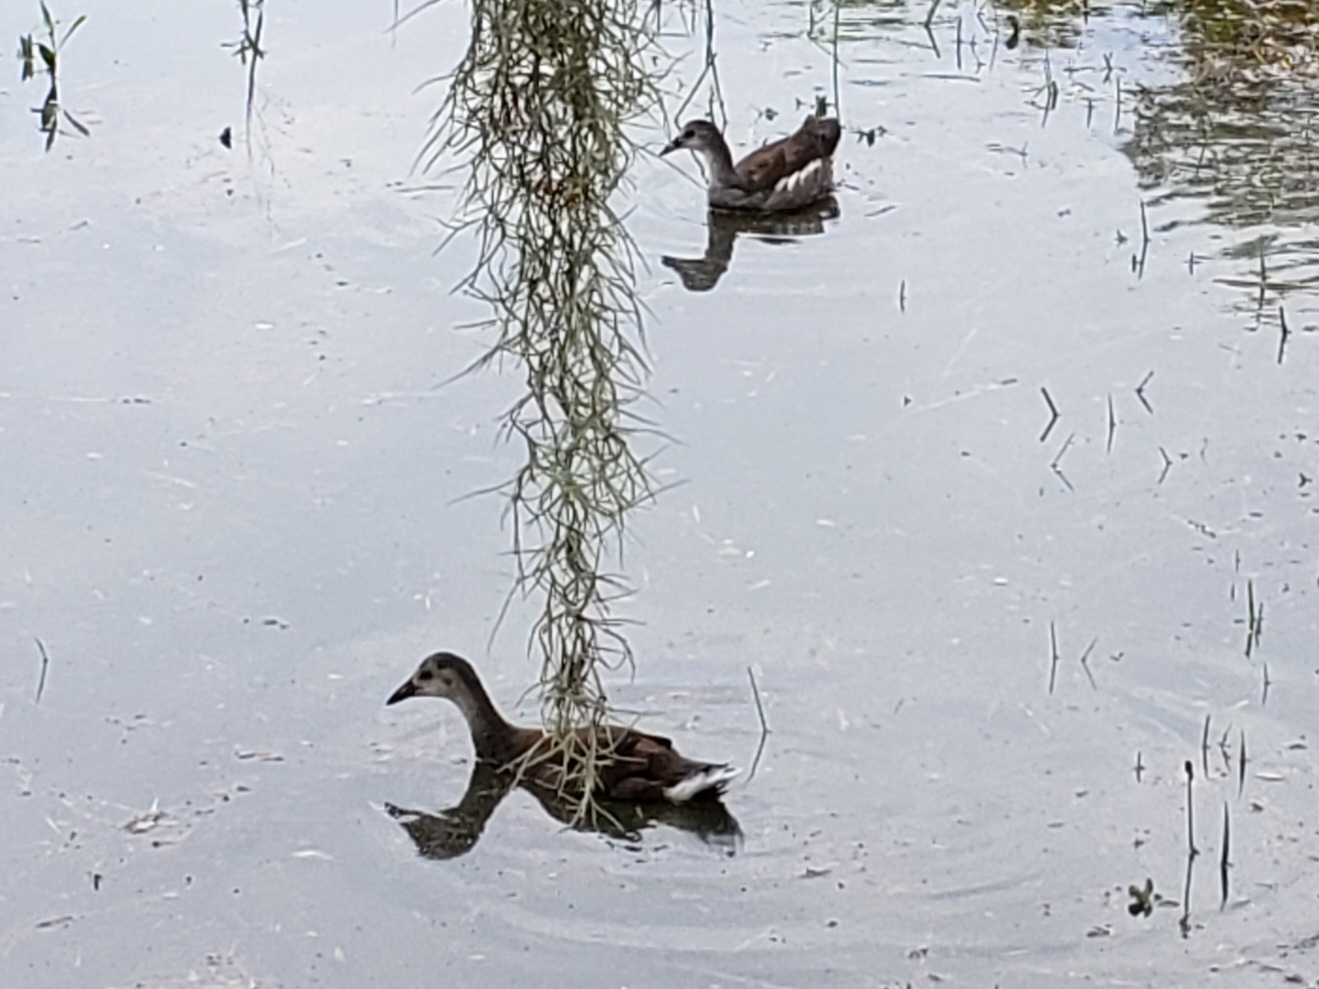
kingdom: Animalia
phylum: Chordata
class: Aves
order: Gruiformes
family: Rallidae
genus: Gallinula
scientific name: Gallinula chloropus
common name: Common moorhen
